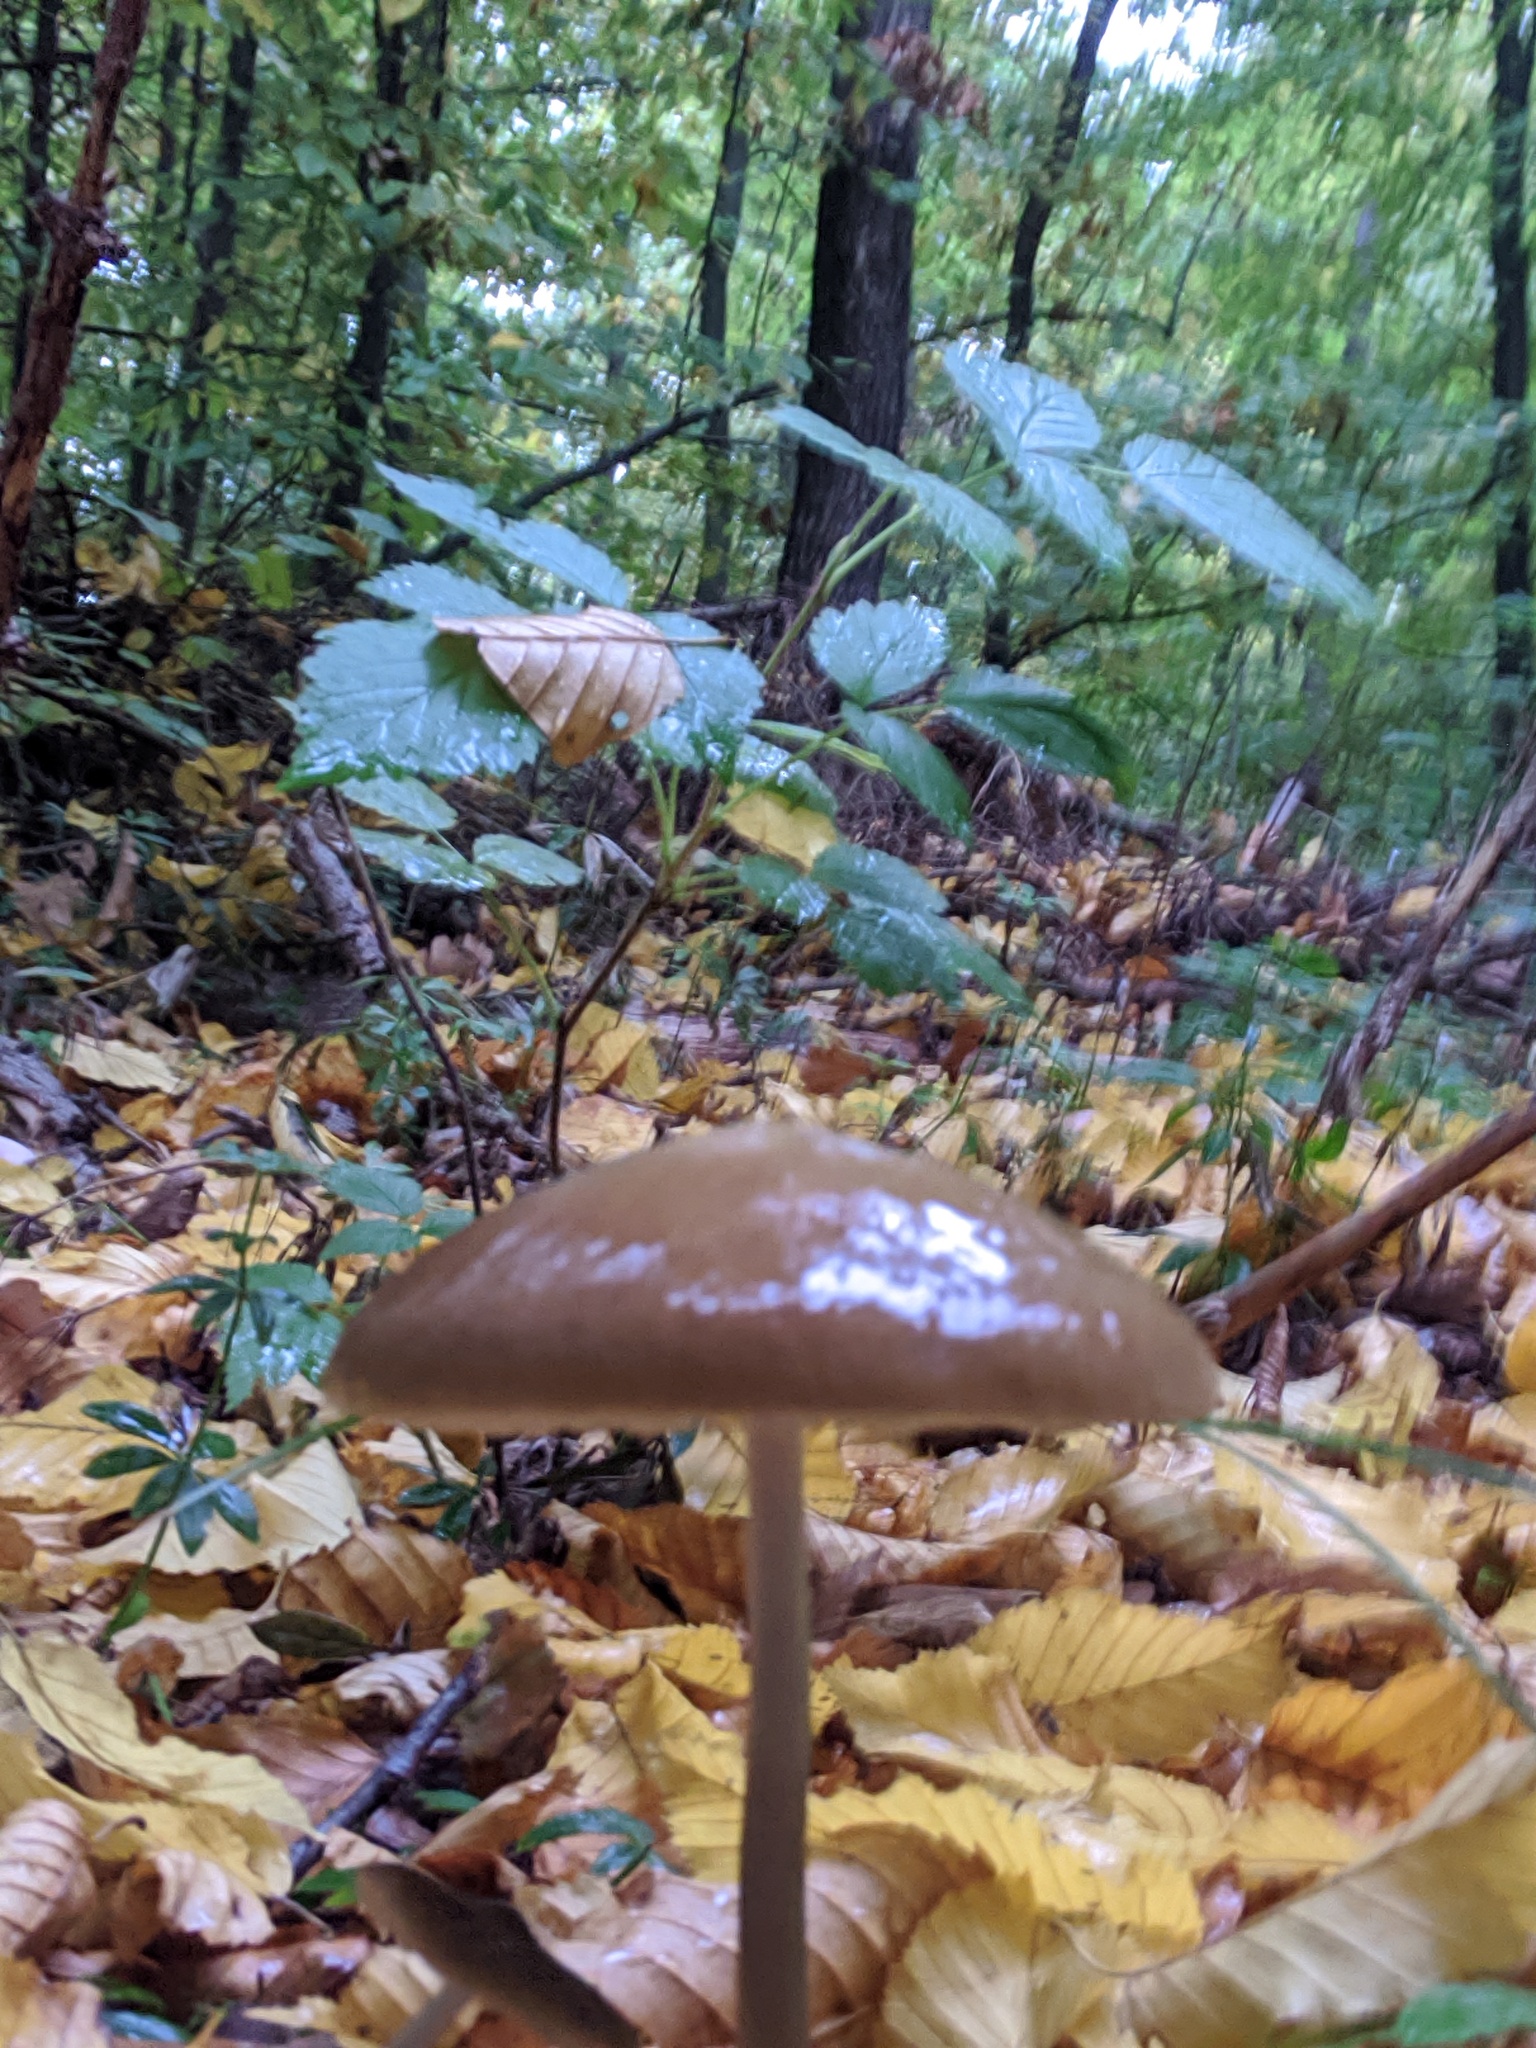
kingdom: Fungi
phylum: Basidiomycota
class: Agaricomycetes
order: Agaricales
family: Physalacriaceae
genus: Hymenopellis
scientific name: Hymenopellis radicata
